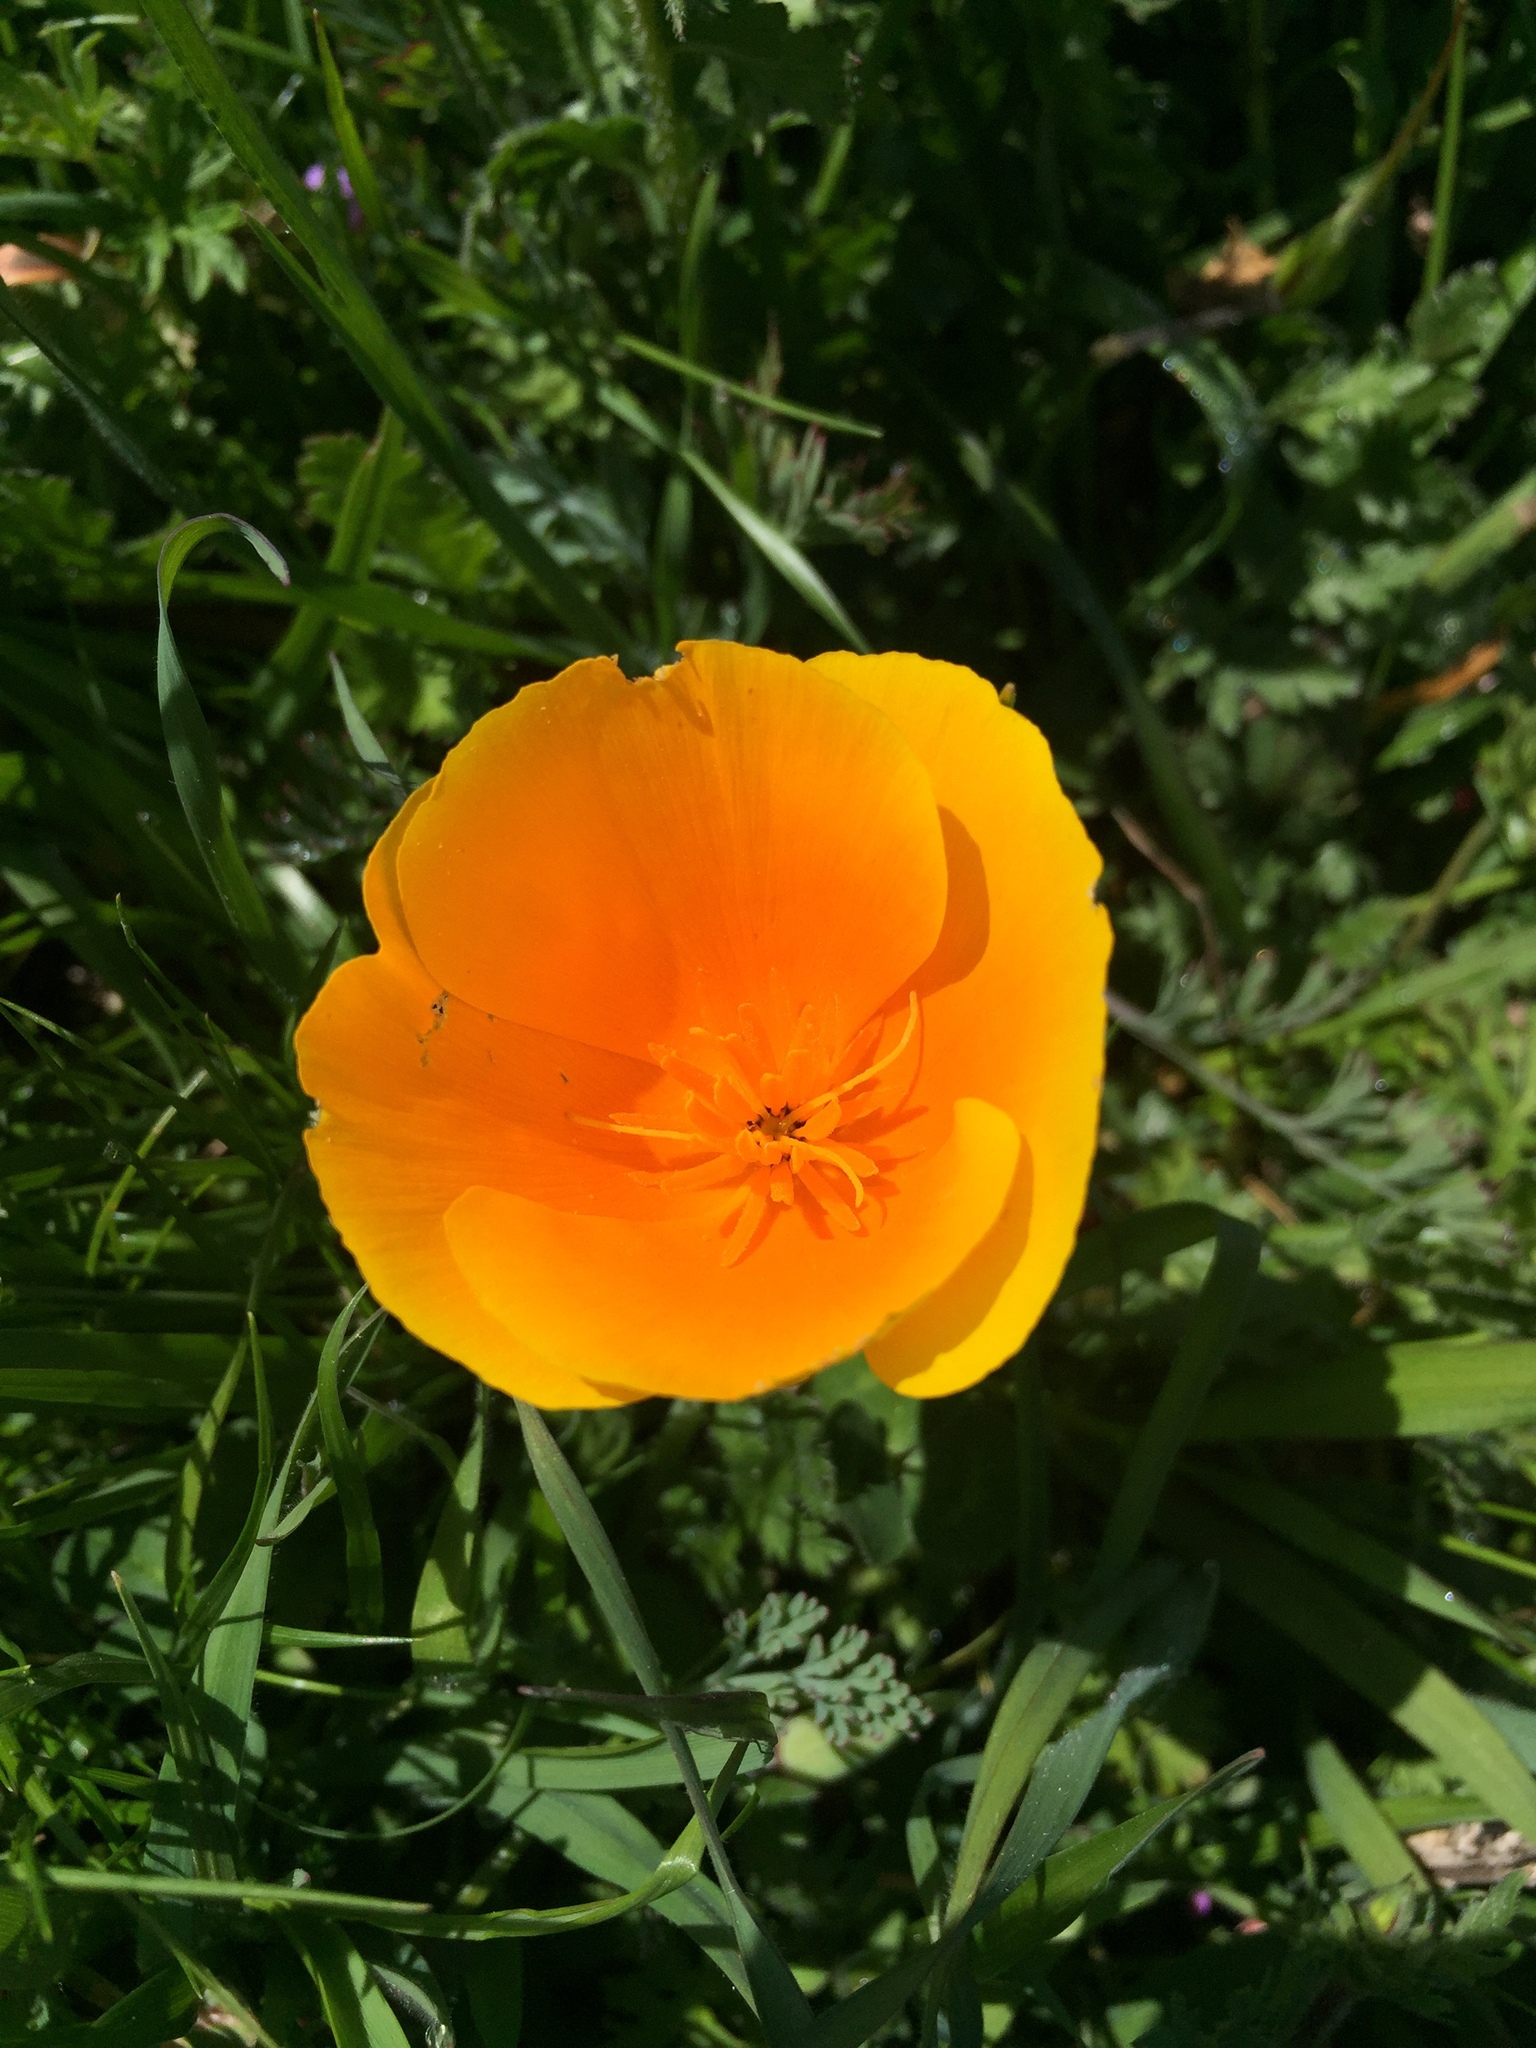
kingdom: Plantae
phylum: Tracheophyta
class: Magnoliopsida
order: Ranunculales
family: Papaveraceae
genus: Eschscholzia
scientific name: Eschscholzia californica
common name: California poppy
